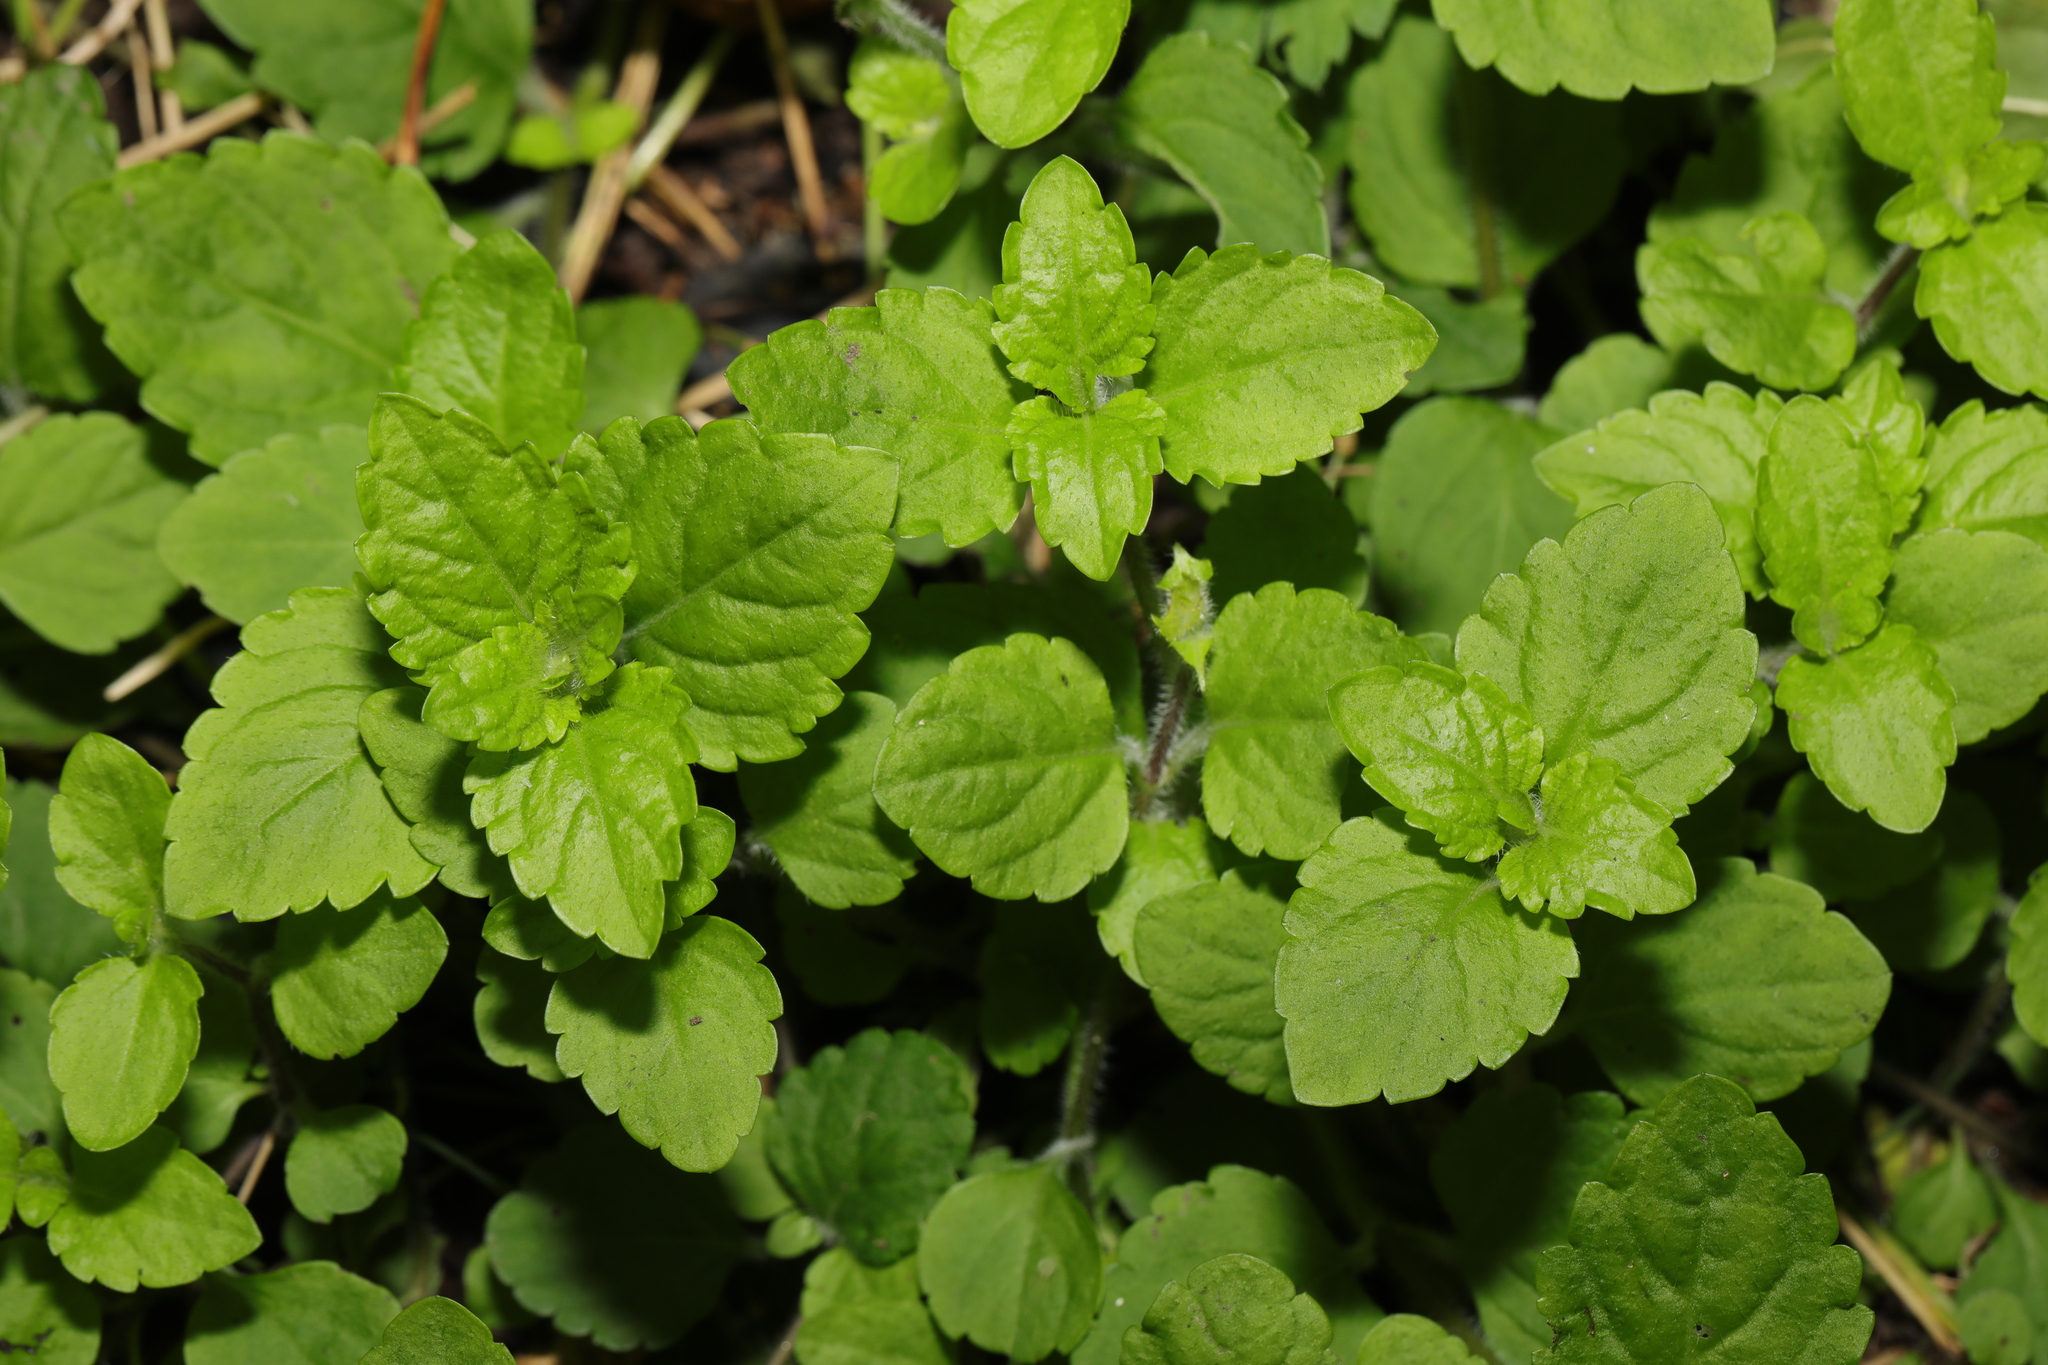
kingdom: Plantae
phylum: Tracheophyta
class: Magnoliopsida
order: Lamiales
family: Plantaginaceae
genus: Veronica
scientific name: Veronica montana
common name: Wood speedwell
